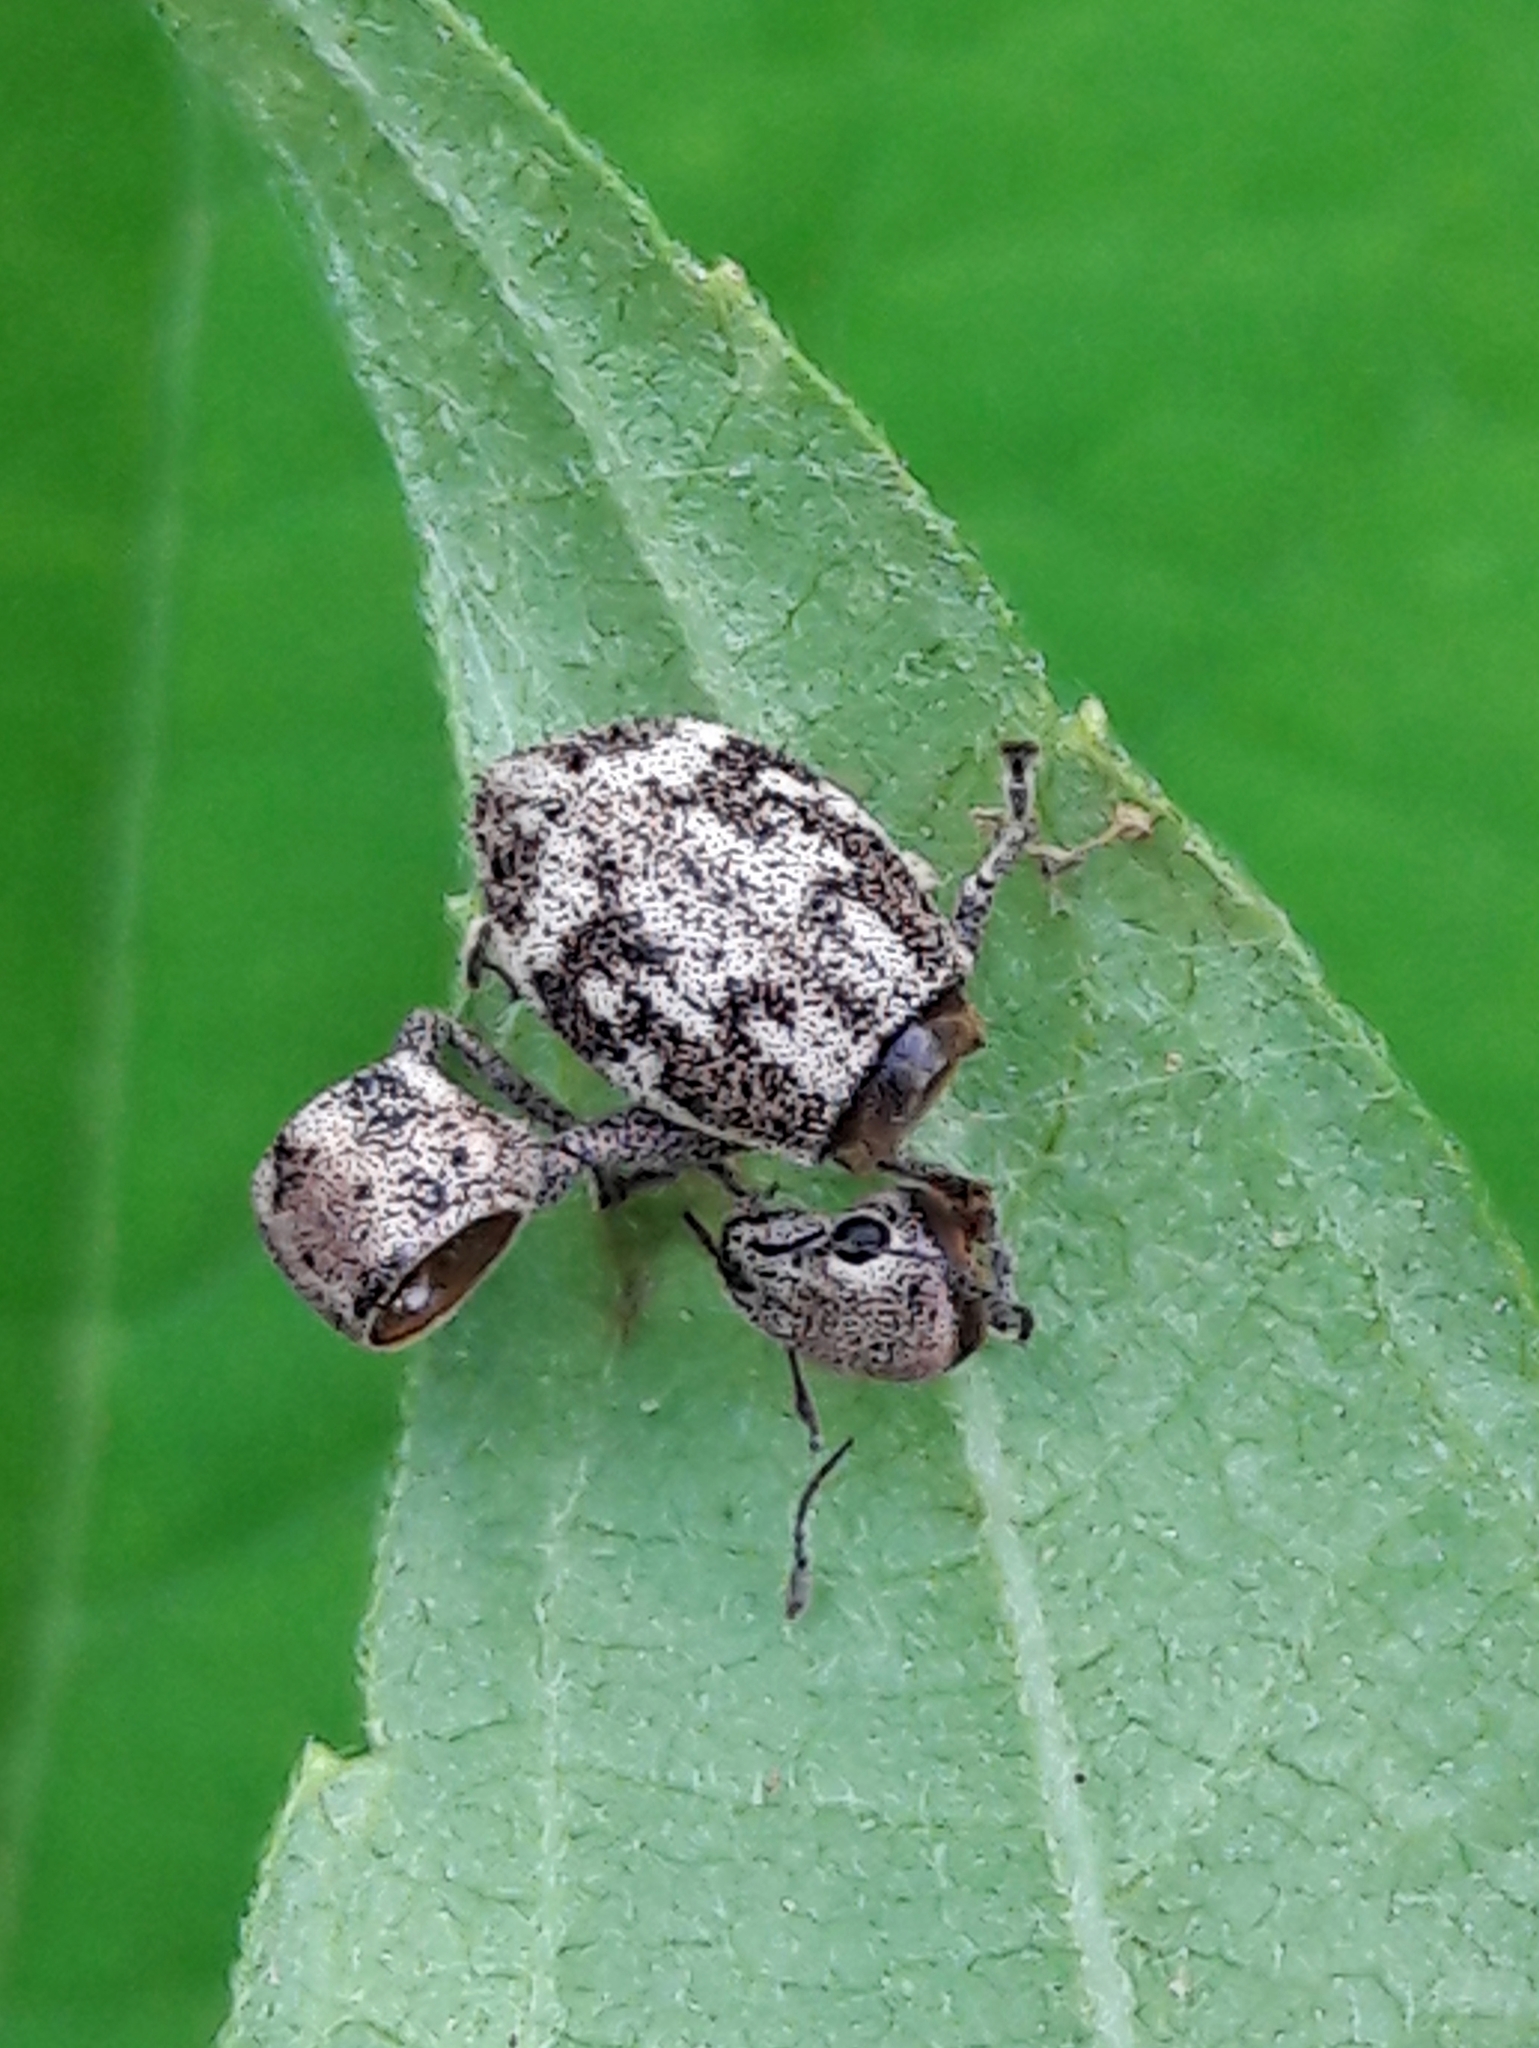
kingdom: Animalia
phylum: Arthropoda
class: Insecta
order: Coleoptera
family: Curculionidae
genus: Parapantomorus
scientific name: Parapantomorus fluctuosus
